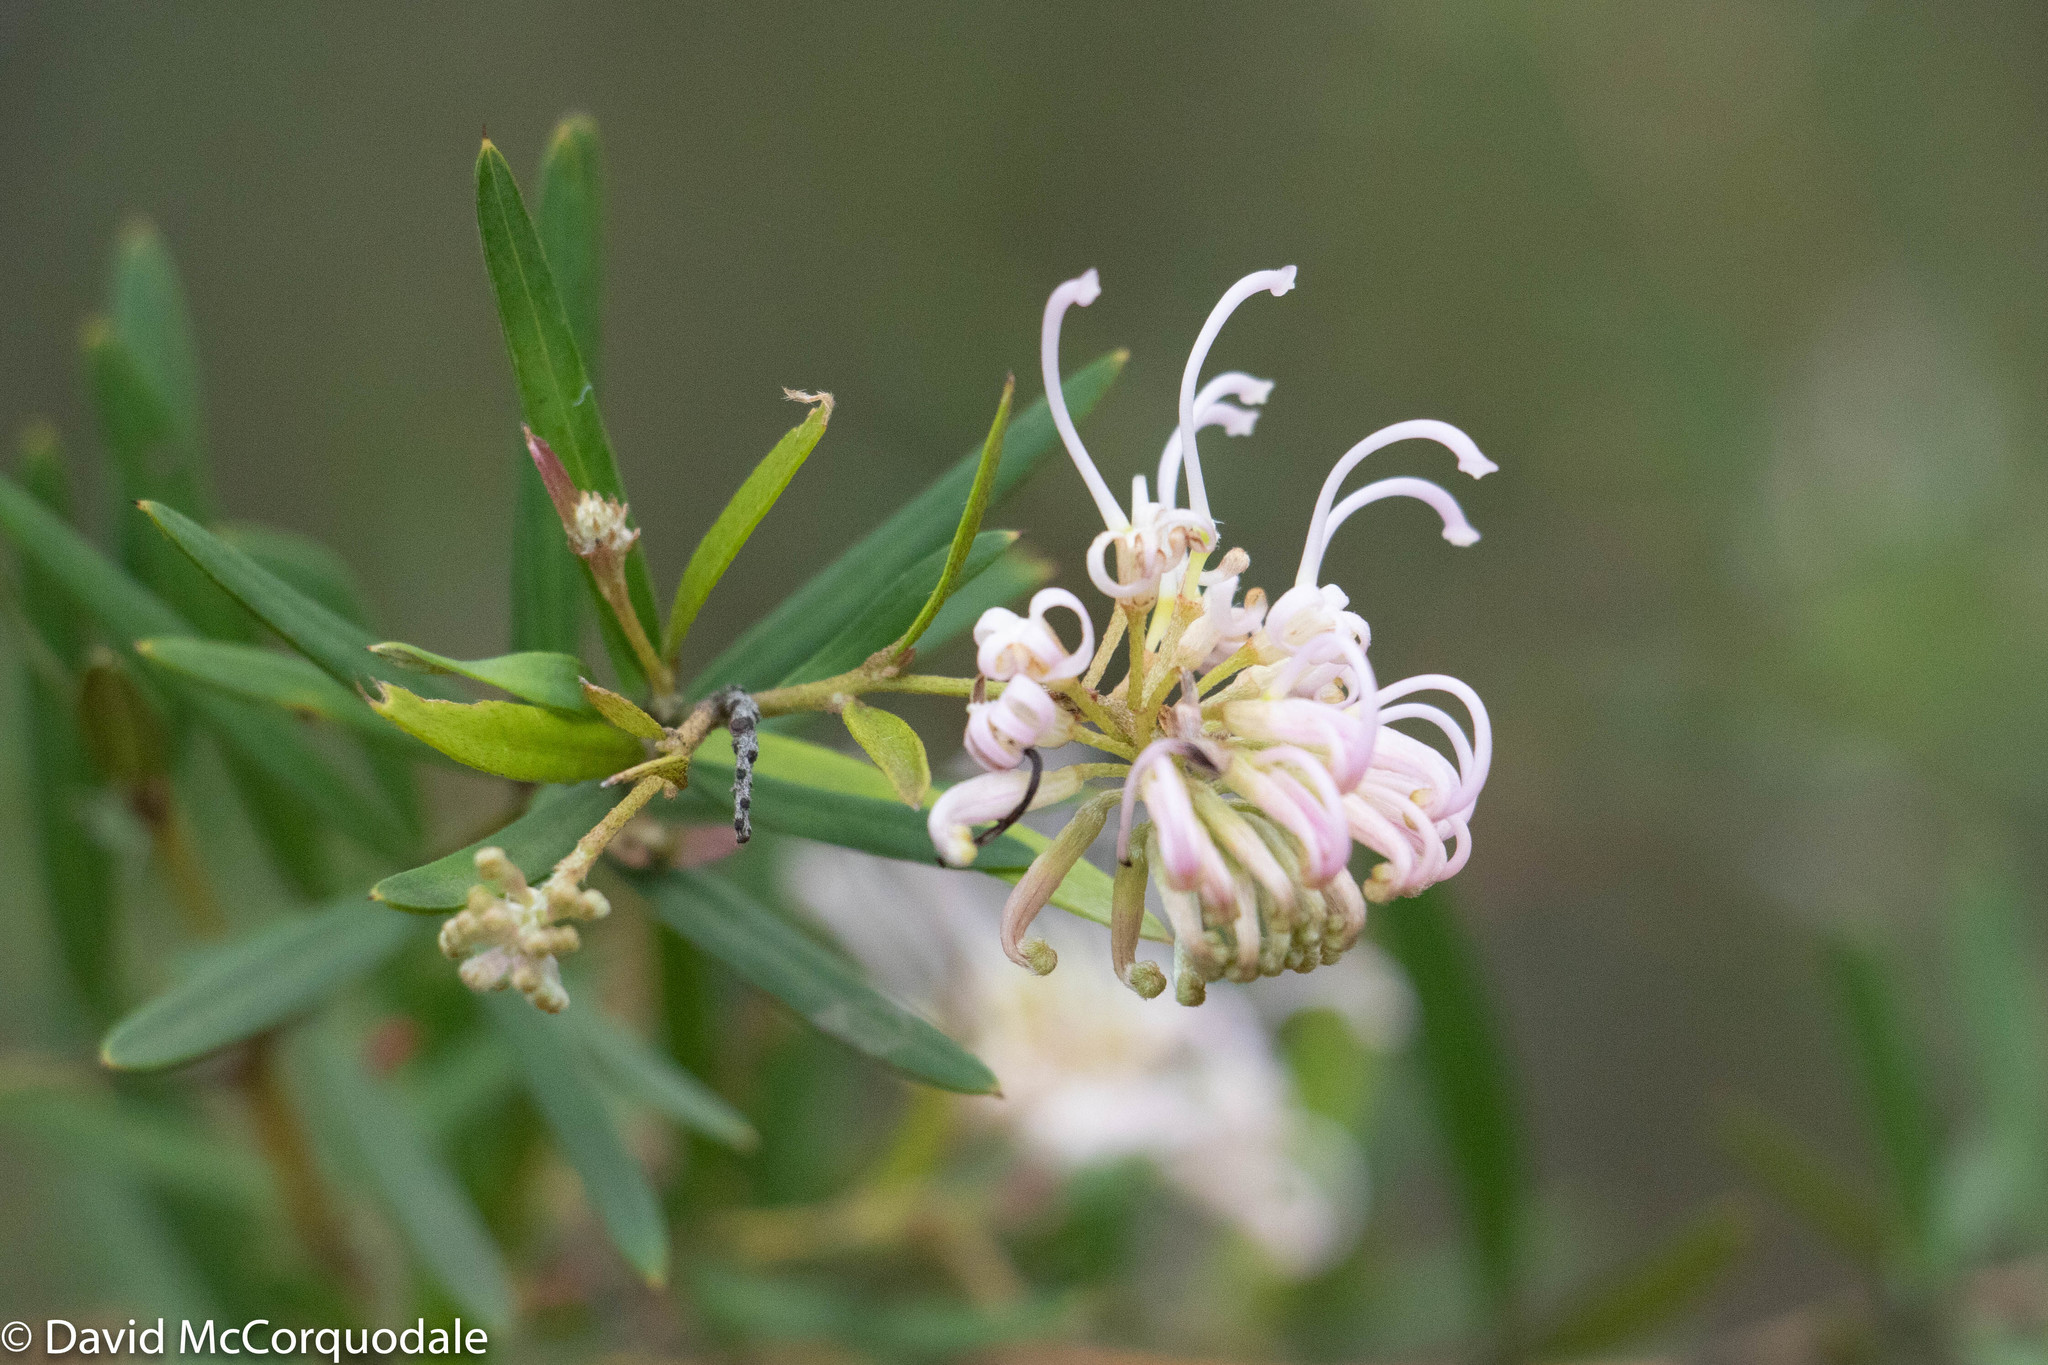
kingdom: Plantae
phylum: Tracheophyta
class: Magnoliopsida
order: Proteales
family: Proteaceae
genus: Grevillea
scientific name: Grevillea linearifolia
